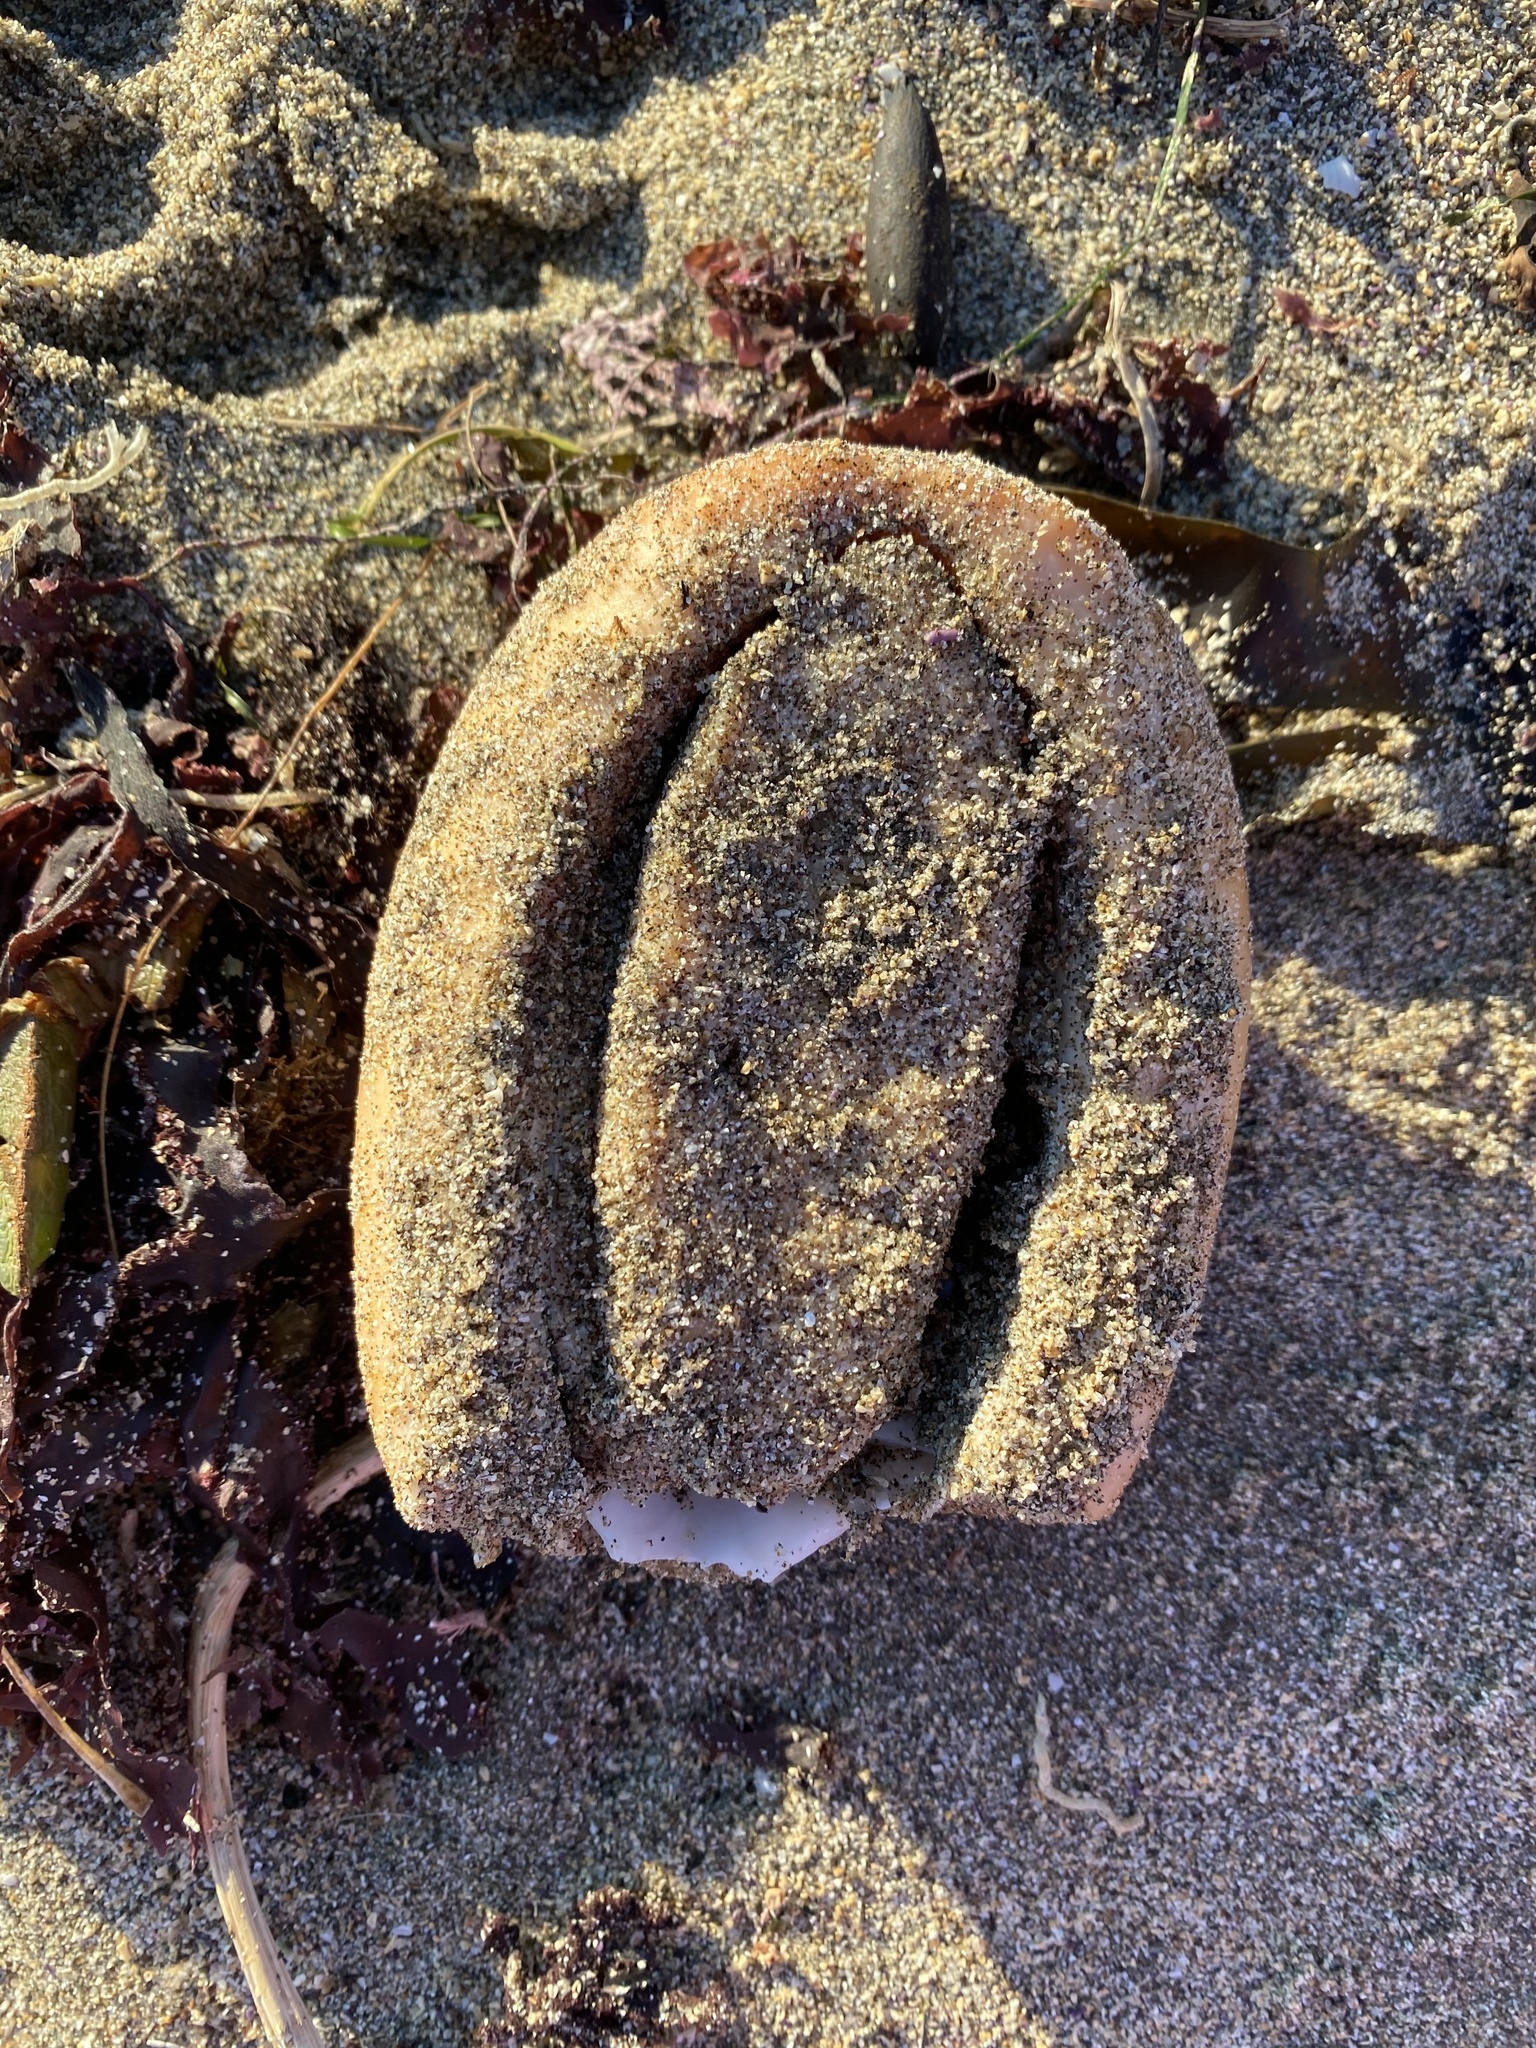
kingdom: Animalia
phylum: Mollusca
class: Polyplacophora
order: Chitonida
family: Acanthochitonidae
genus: Cryptochiton
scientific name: Cryptochiton stelleri
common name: Giant pacific chiton
